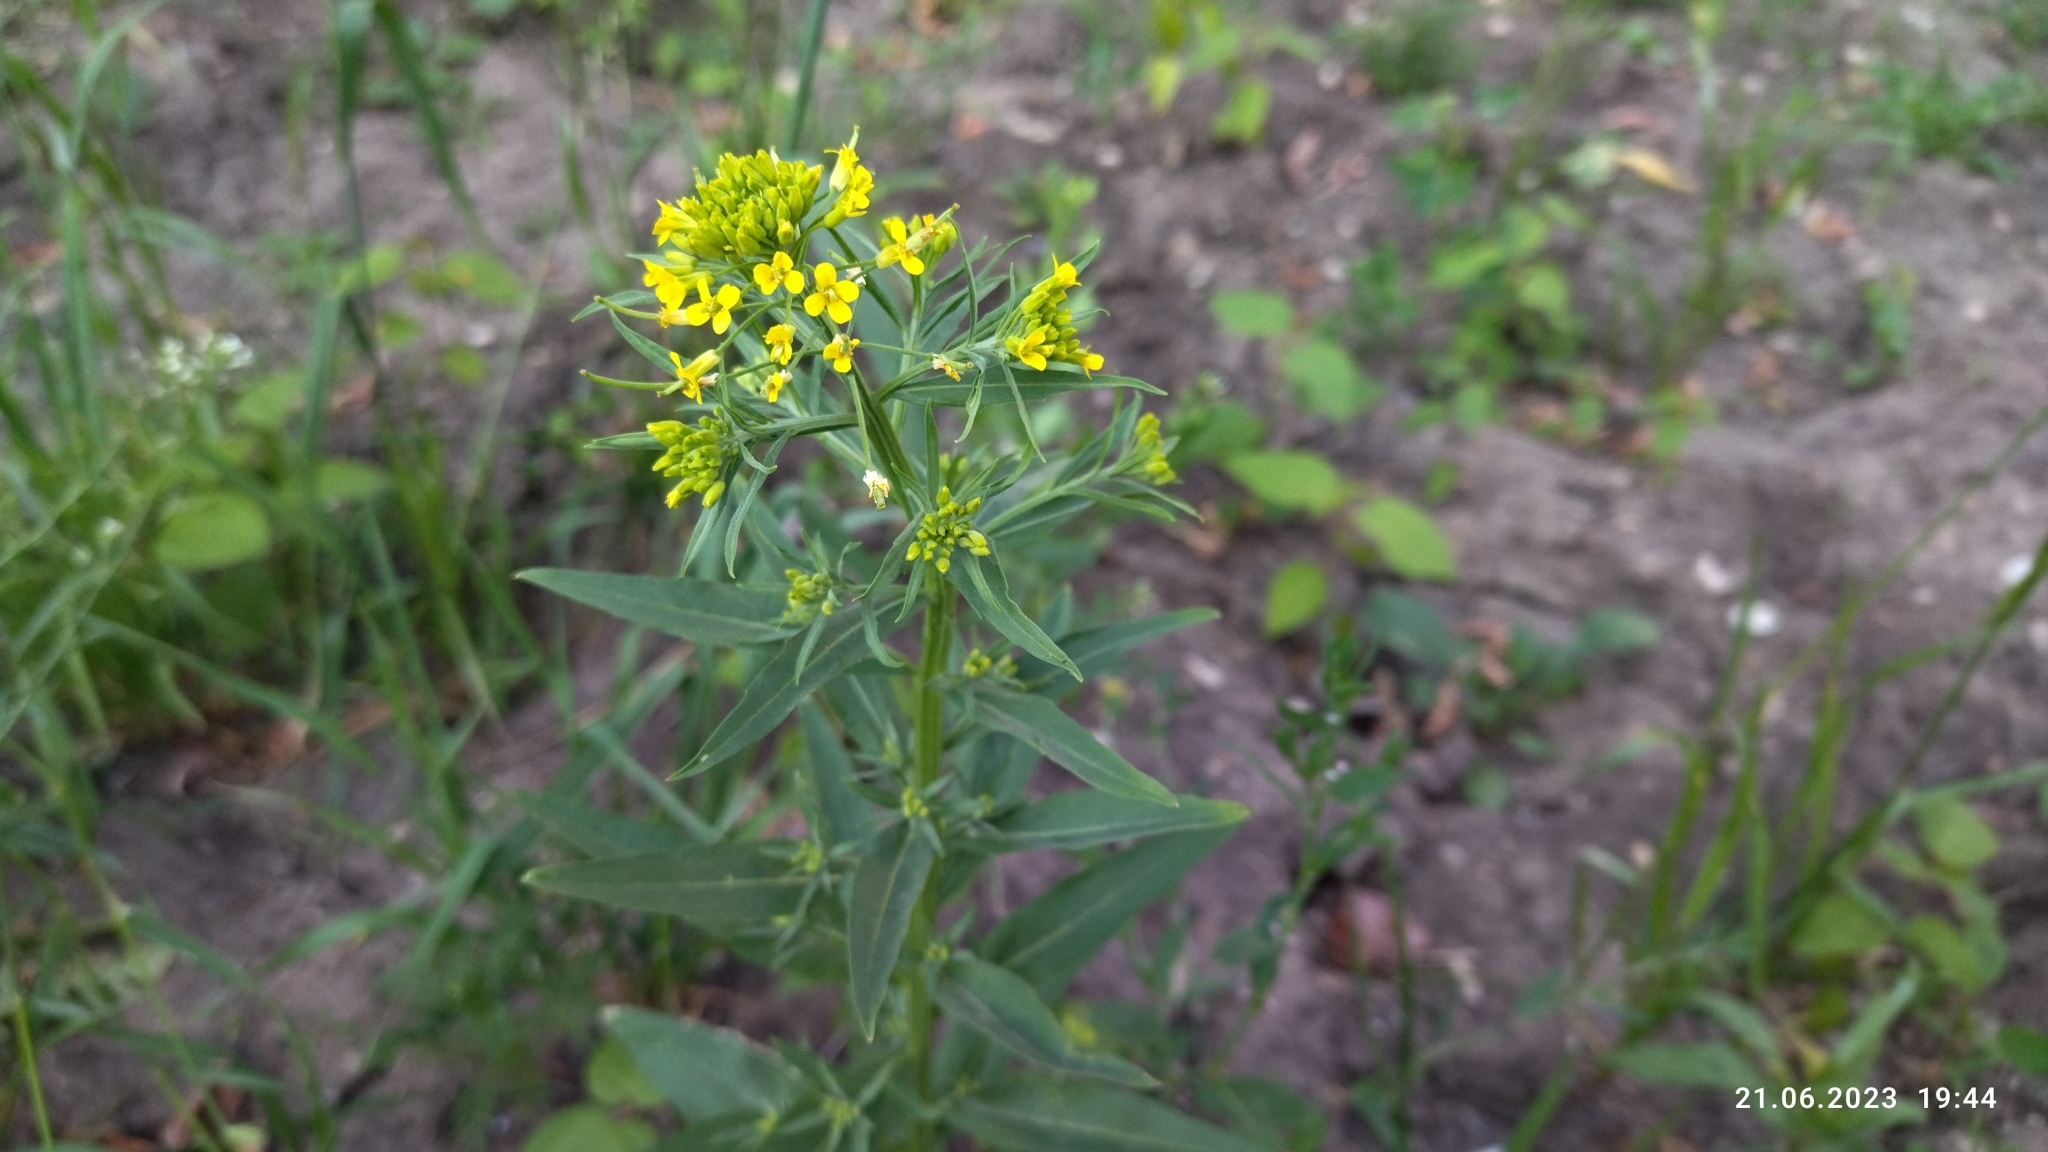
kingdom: Plantae
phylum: Tracheophyta
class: Magnoliopsida
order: Brassicales
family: Brassicaceae
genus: Erysimum
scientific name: Erysimum cheiranthoides
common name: Treacle mustard
